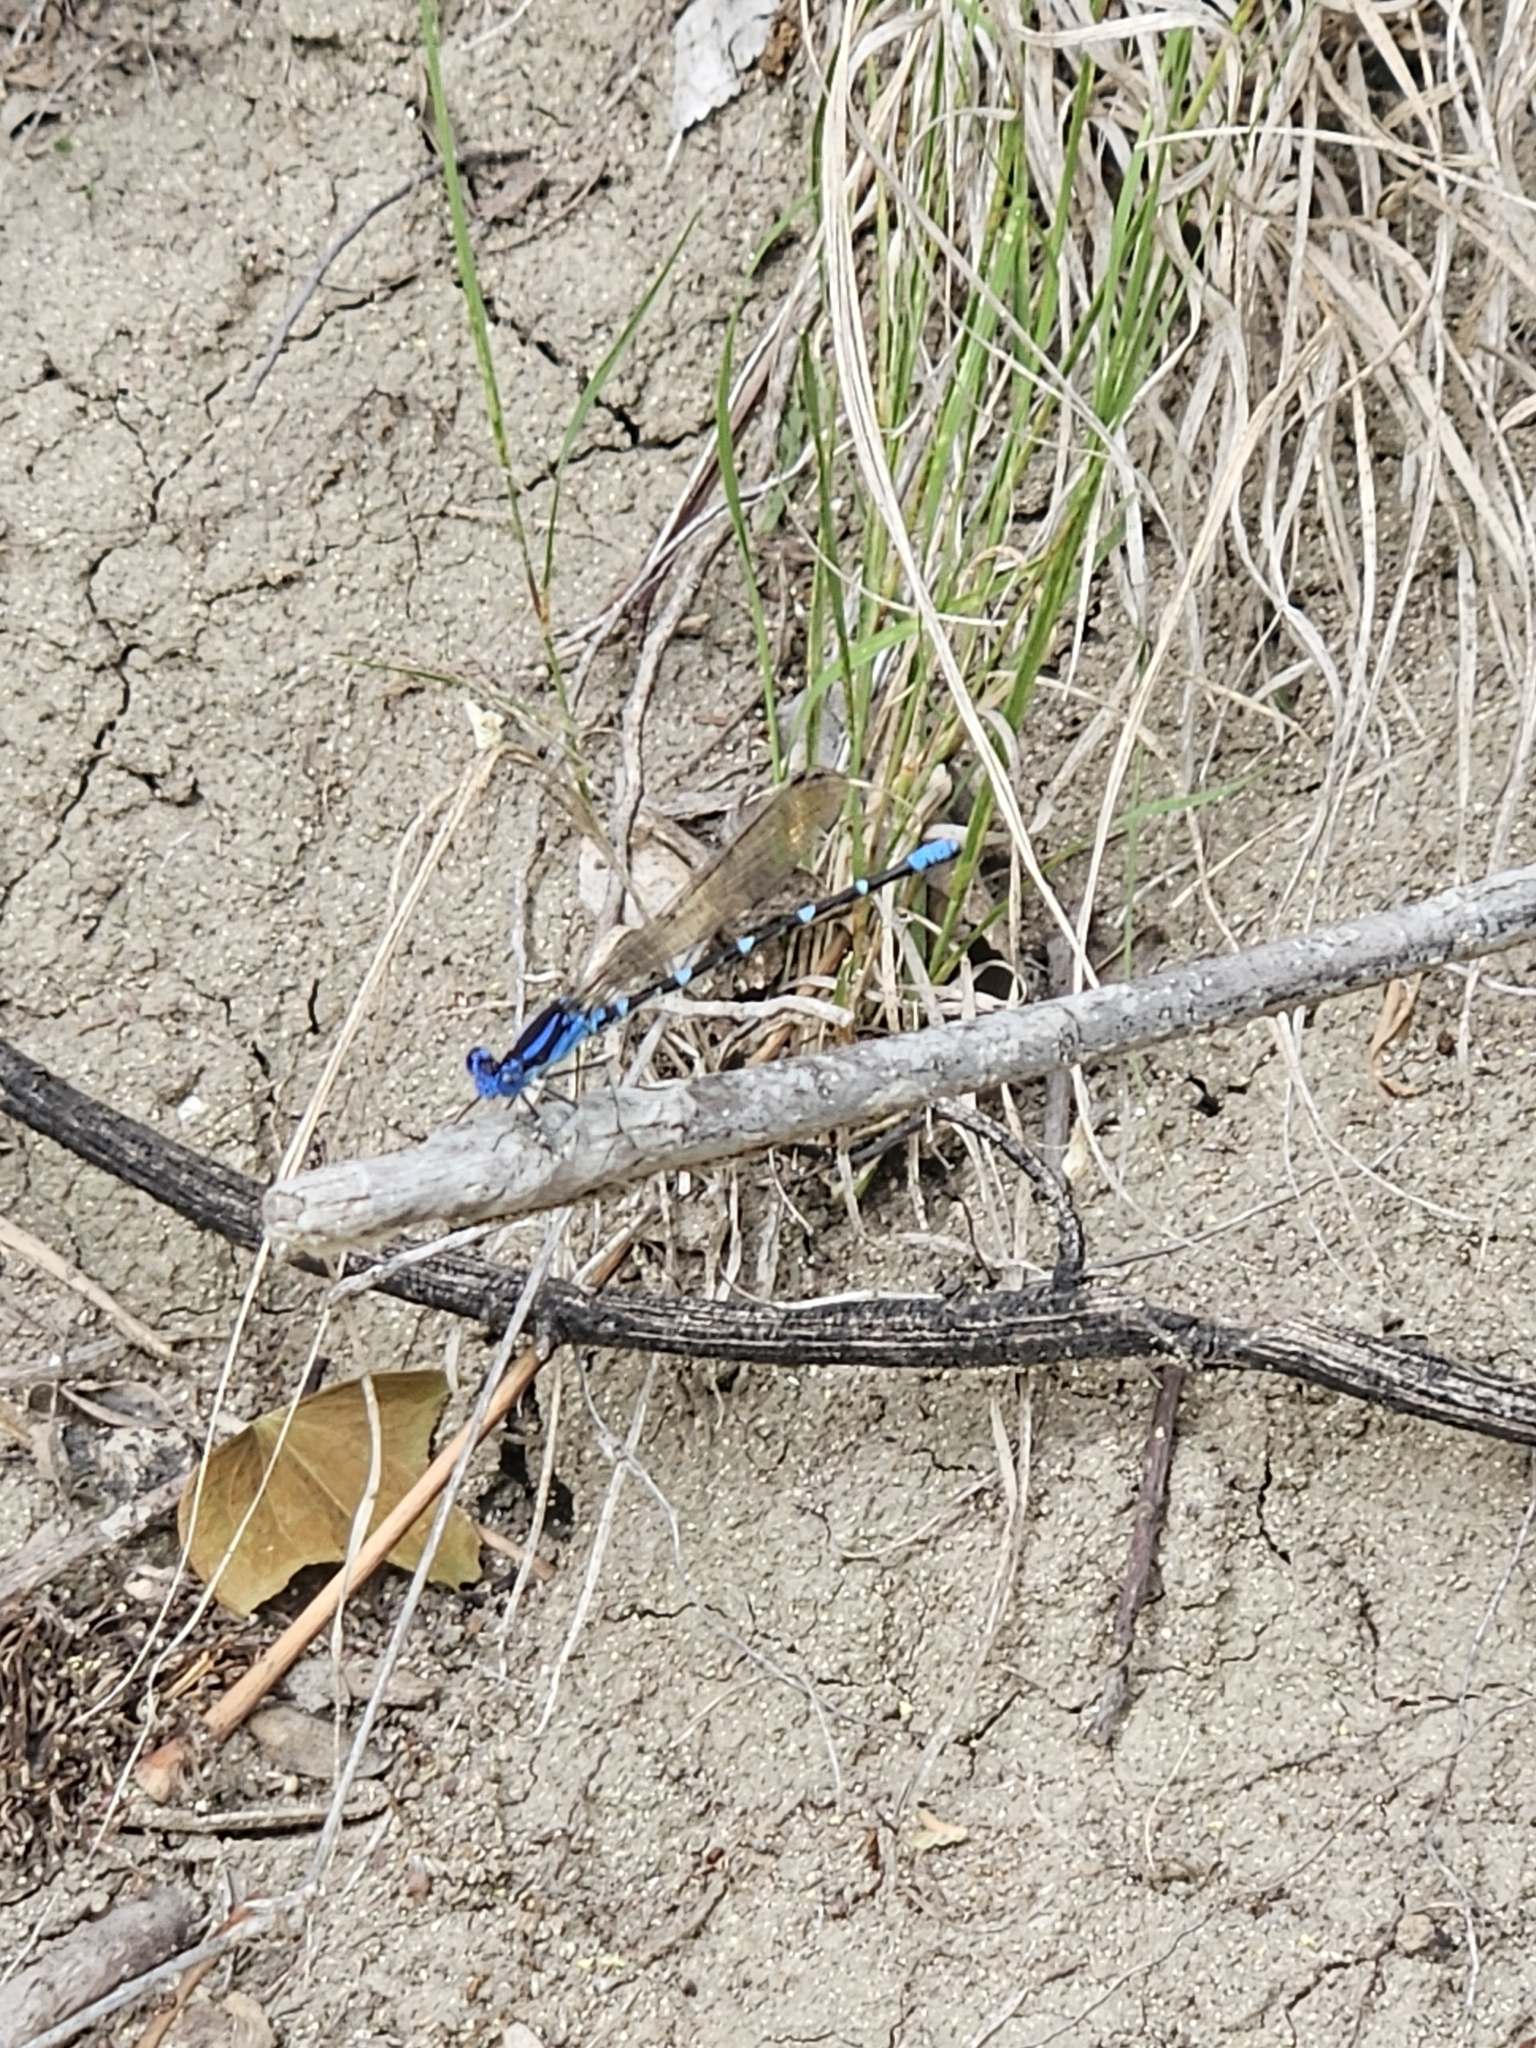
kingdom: Animalia
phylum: Arthropoda
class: Insecta
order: Odonata
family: Coenagrionidae
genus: Argia
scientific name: Argia sedula
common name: Blue-ringed dancer
